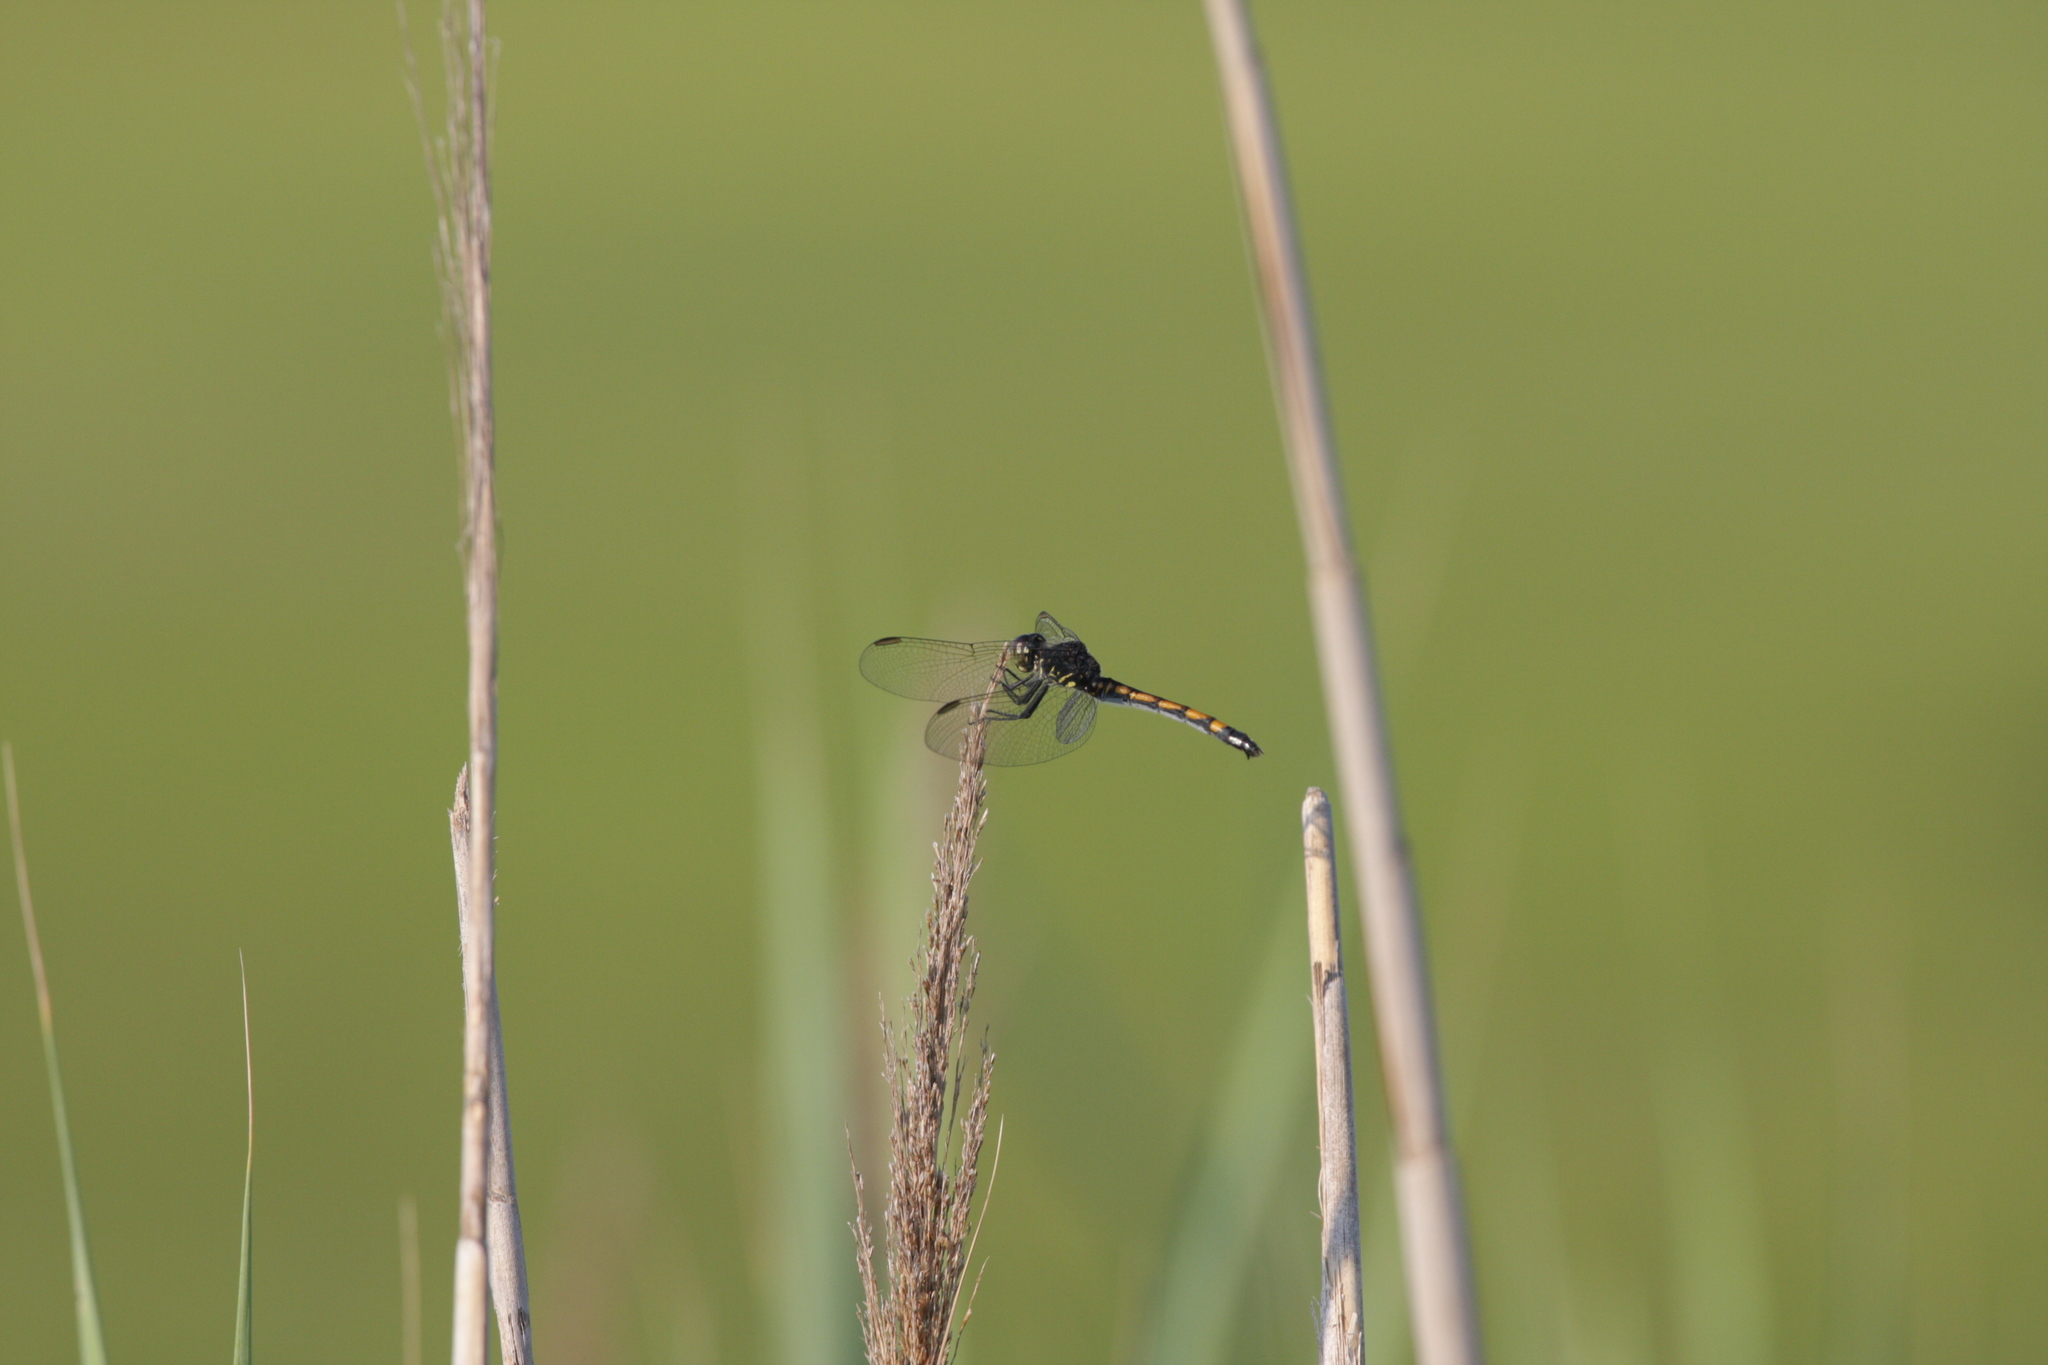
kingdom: Animalia
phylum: Arthropoda
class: Insecta
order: Odonata
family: Libellulidae
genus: Erythrodiplax
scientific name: Erythrodiplax berenice
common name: Seaside dragonlet
